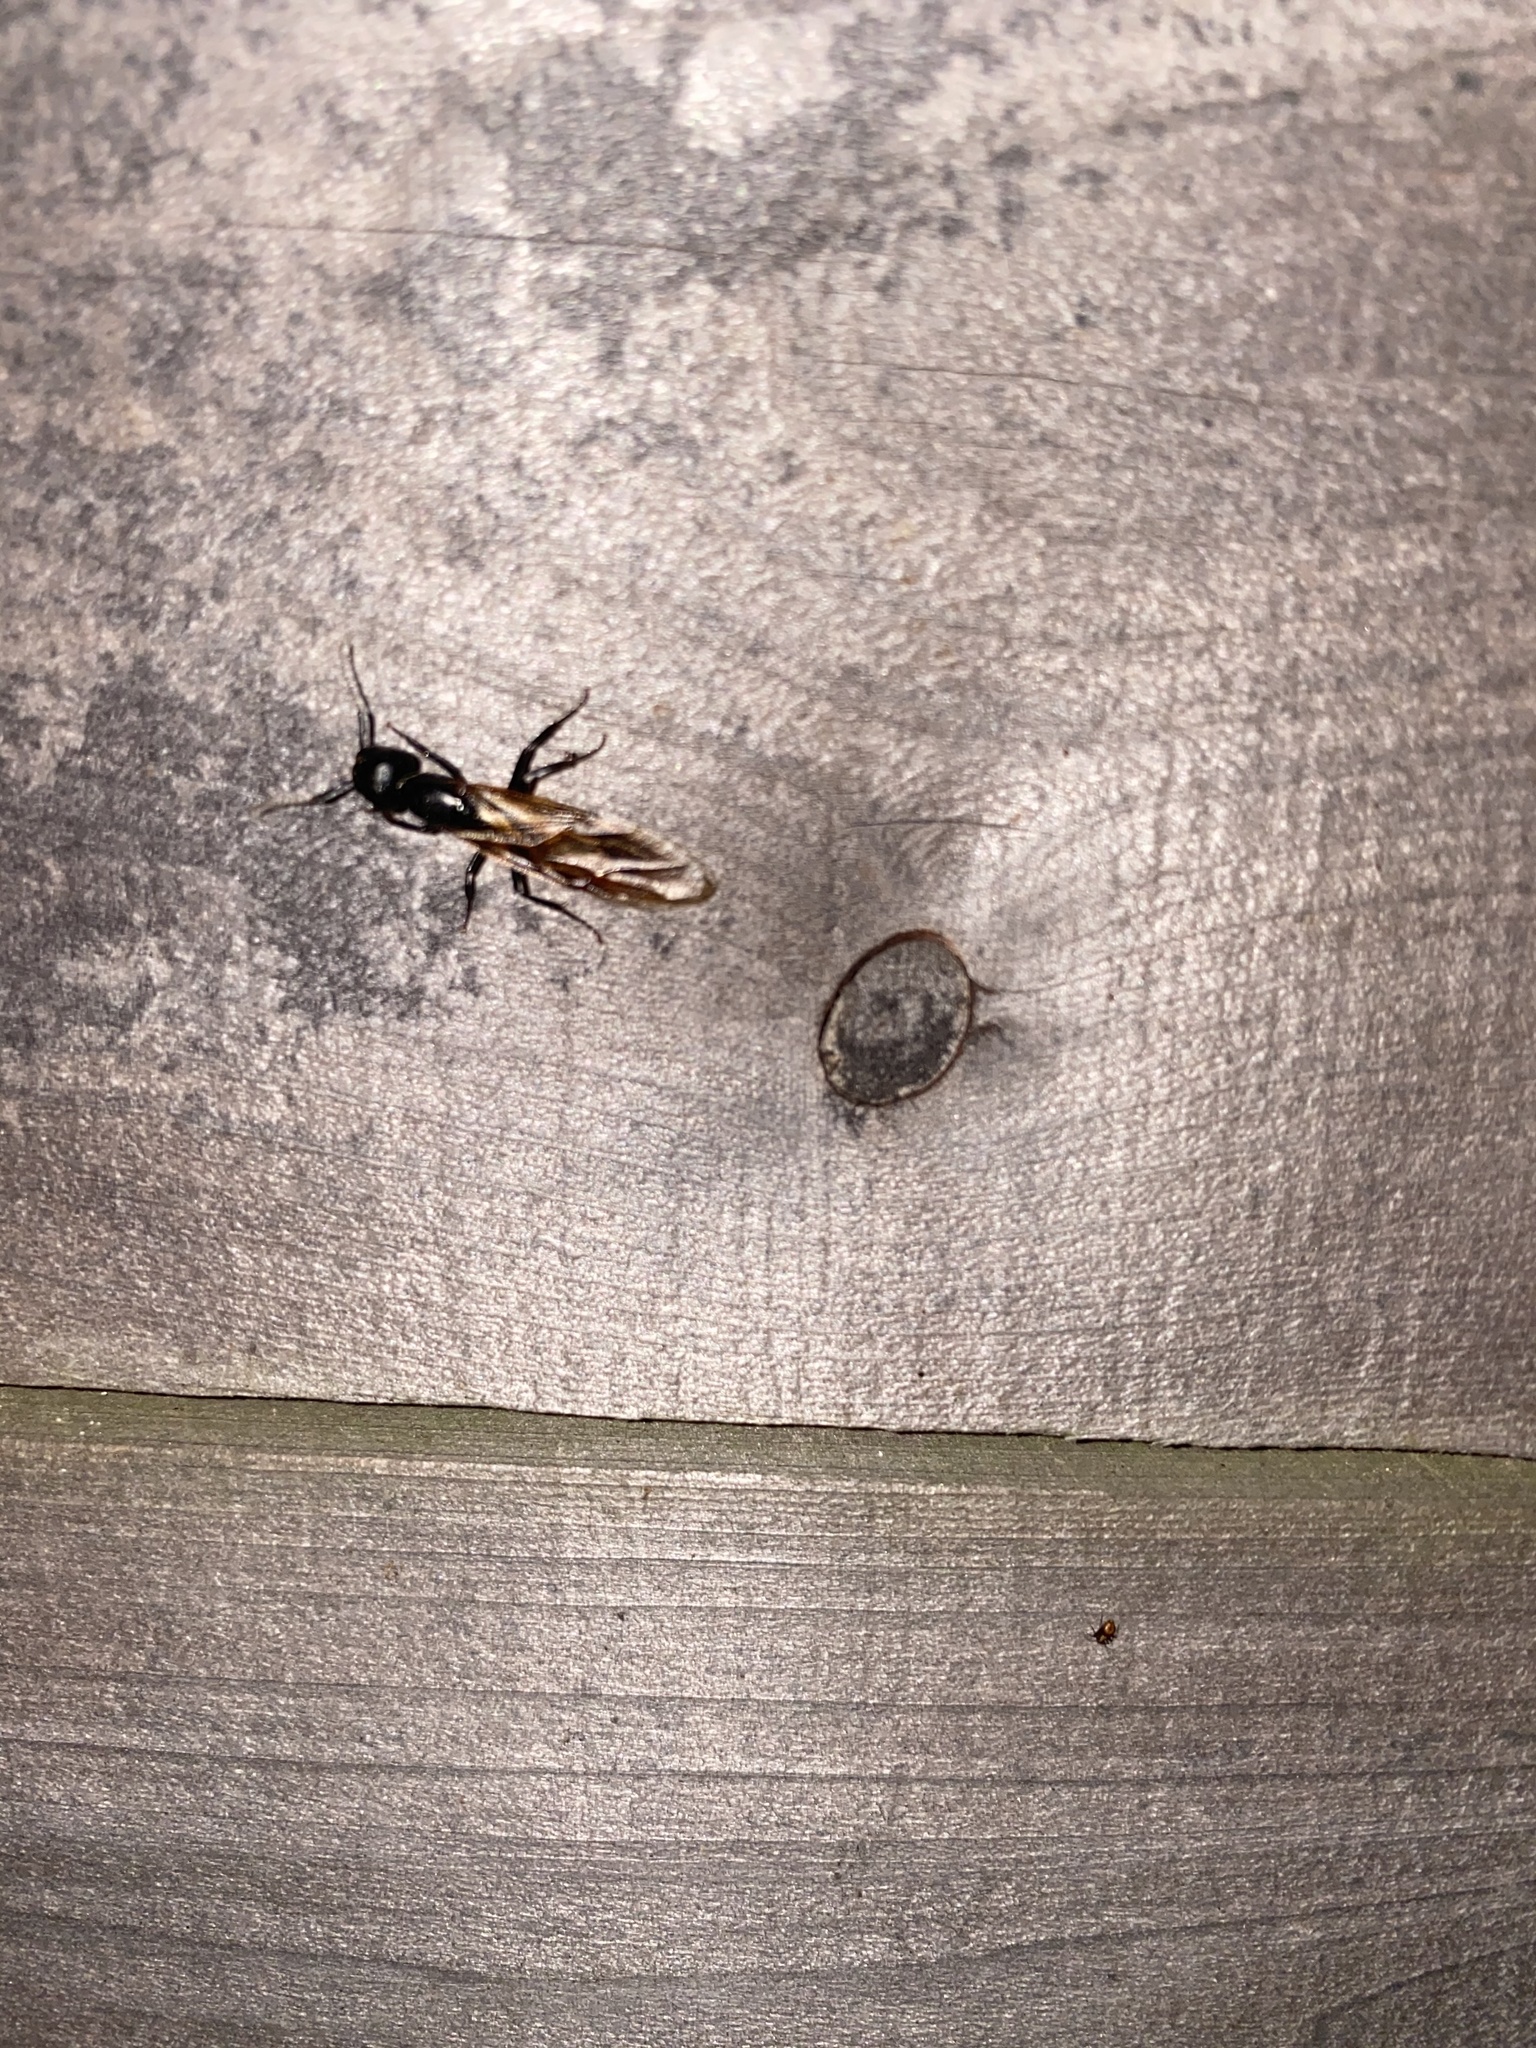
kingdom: Animalia
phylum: Arthropoda
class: Insecta
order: Hymenoptera
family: Formicidae
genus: Camponotus
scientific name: Camponotus pennsylvanicus
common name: Black carpenter ant
